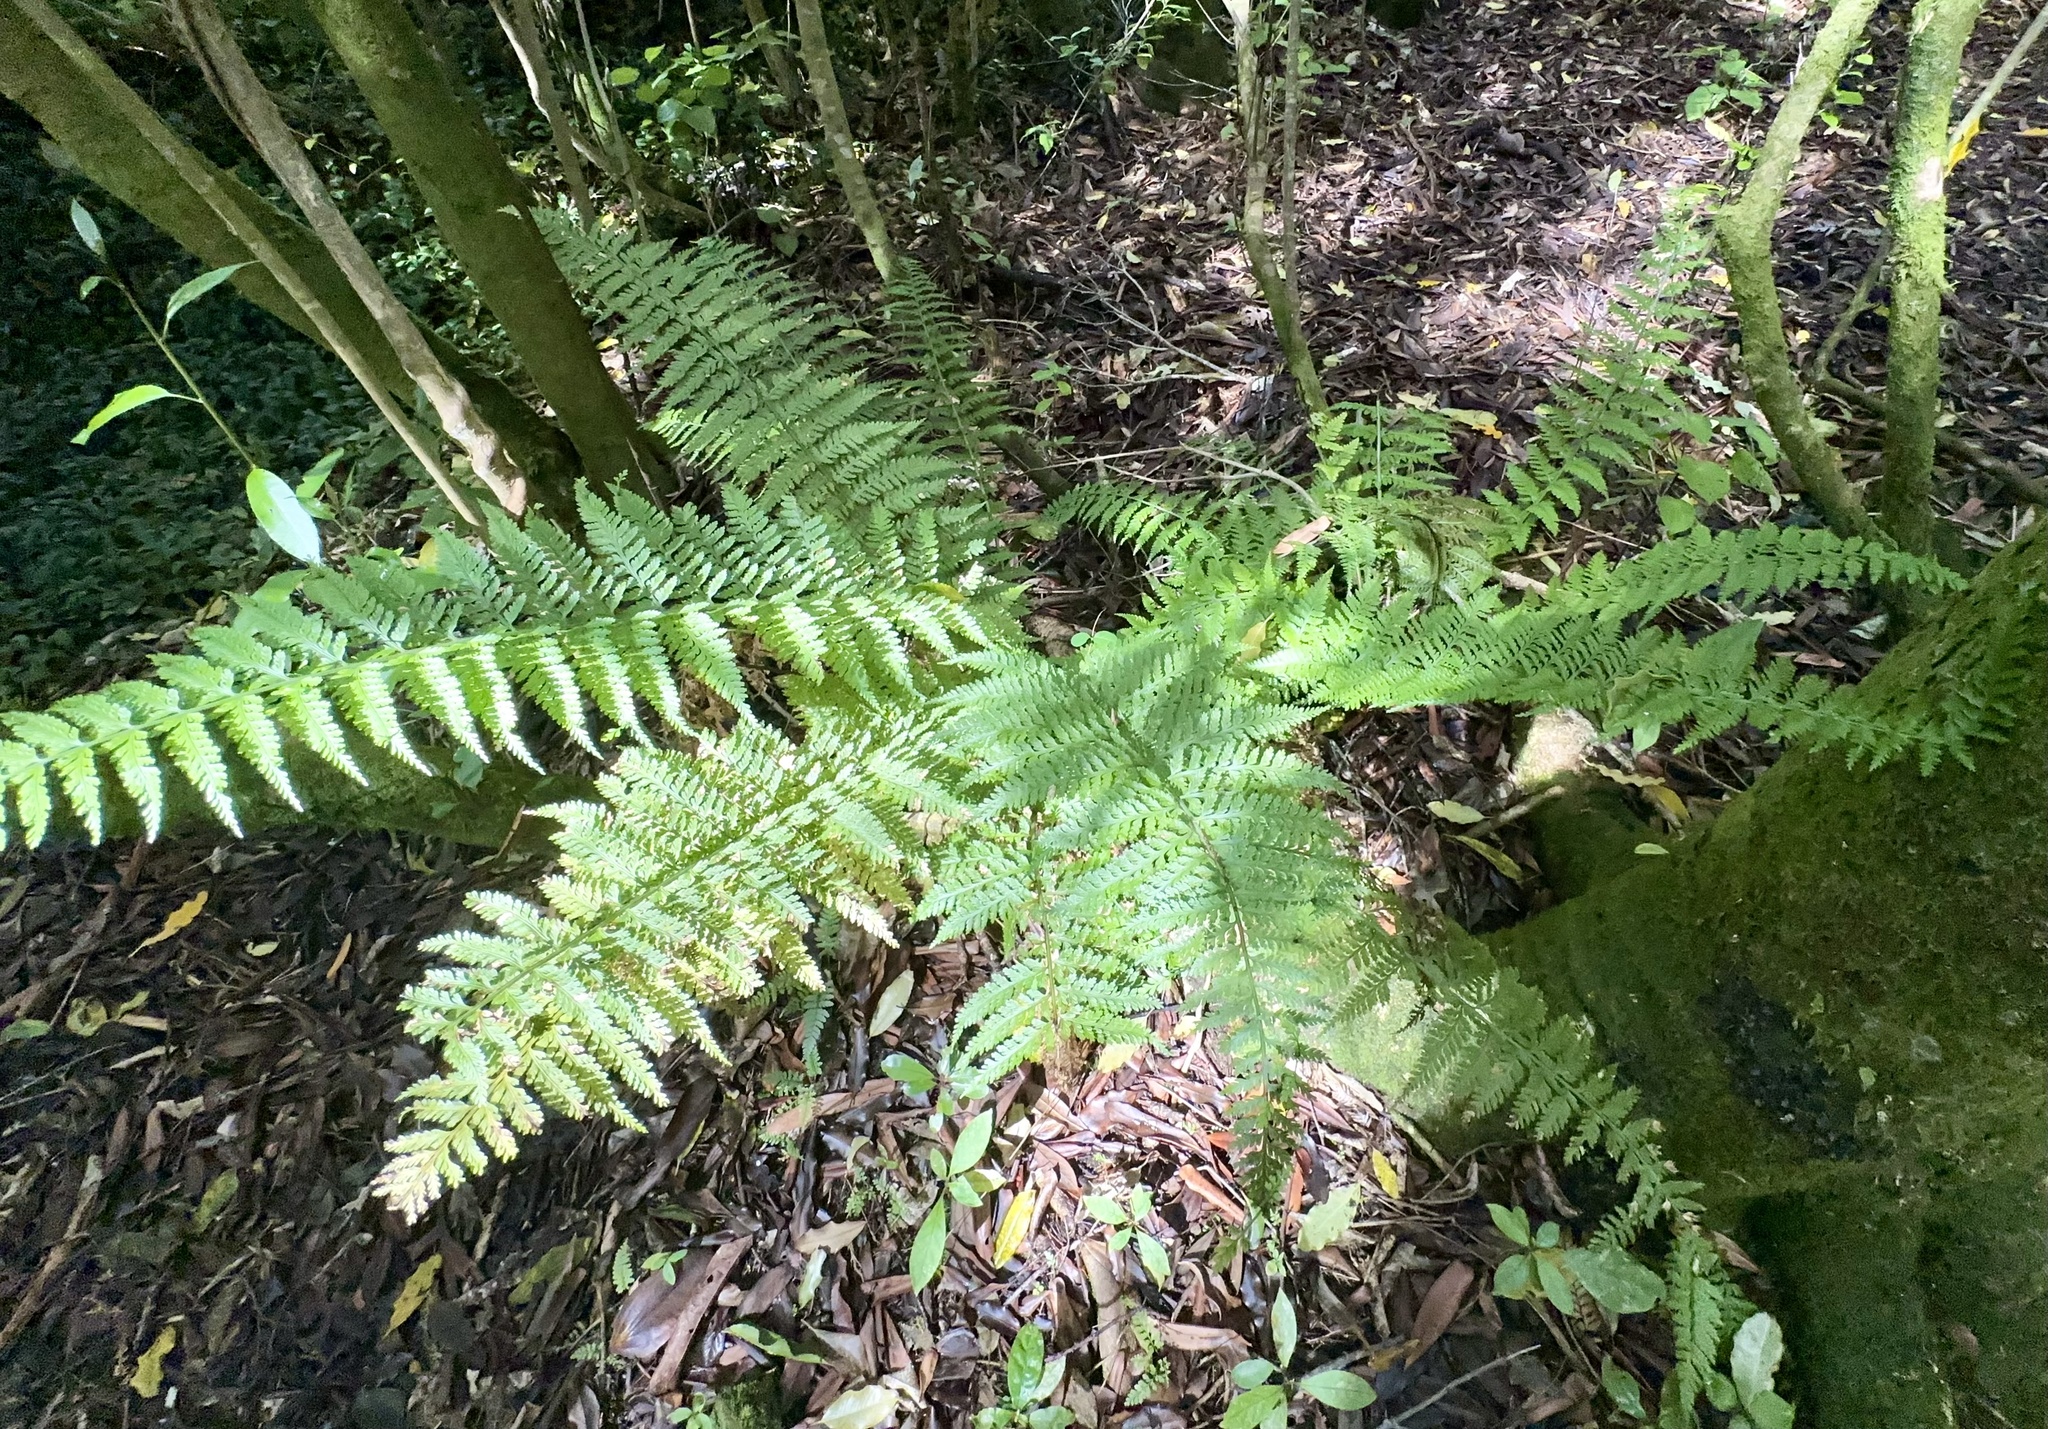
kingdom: Plantae
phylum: Tracheophyta
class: Polypodiopsida
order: Polypodiales
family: Aspleniaceae
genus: Asplenium
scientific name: Asplenium bulbiferum
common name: Mother fern
